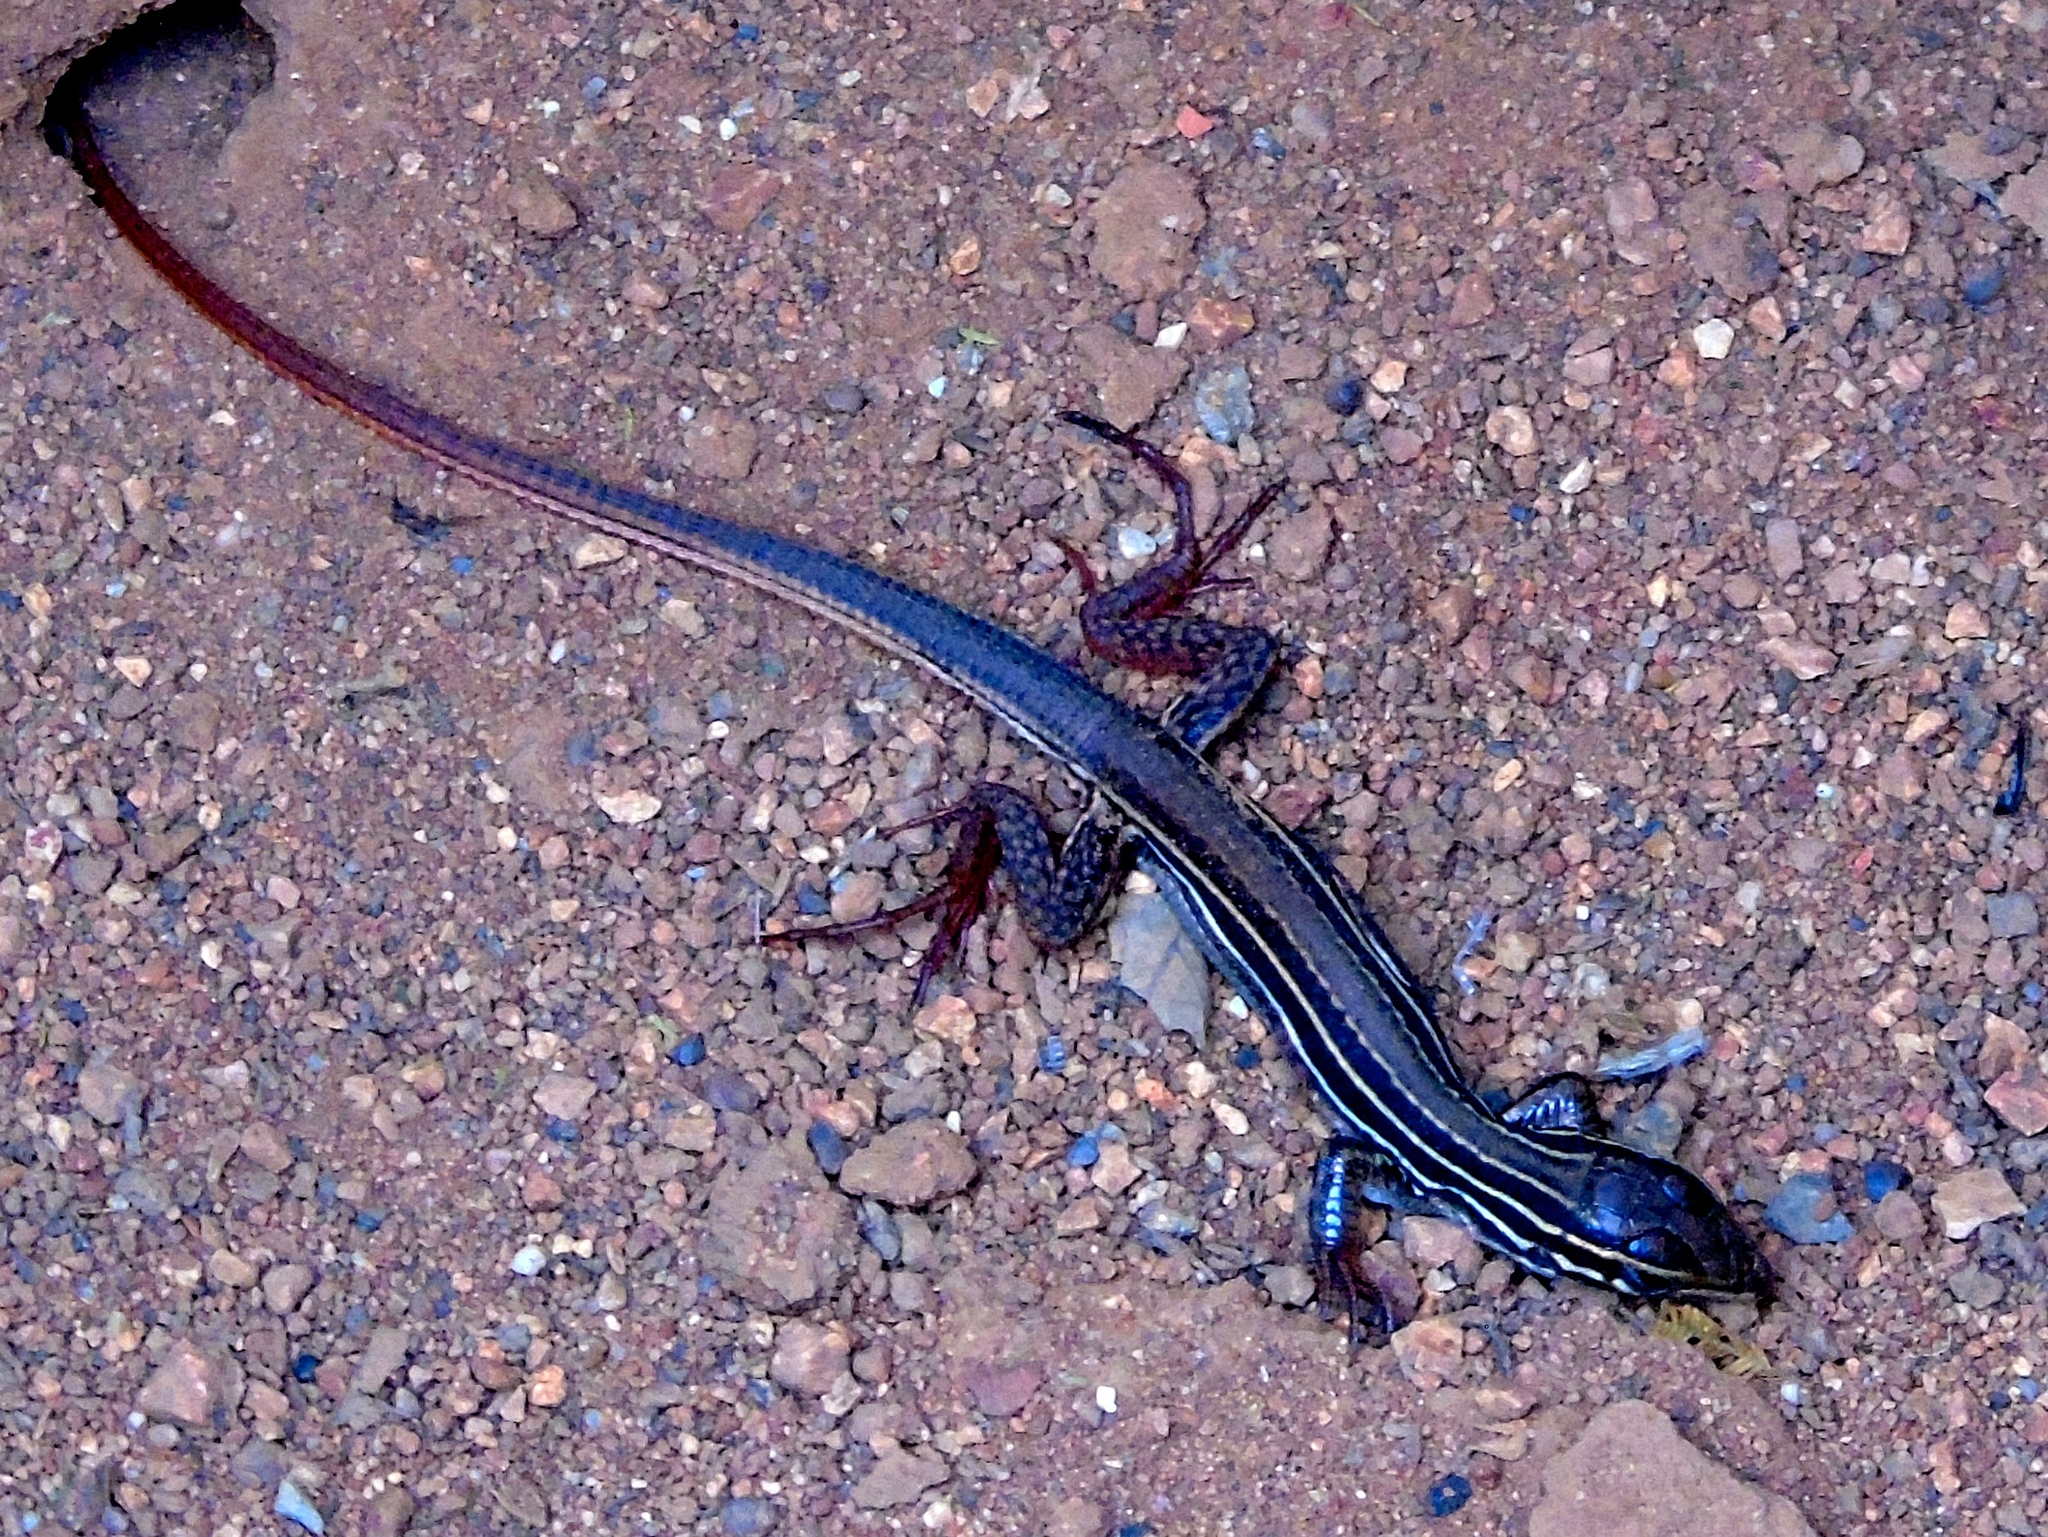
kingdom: Animalia
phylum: Chordata
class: Squamata
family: Teiidae
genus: Aspidoscelis
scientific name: Aspidoscelis
